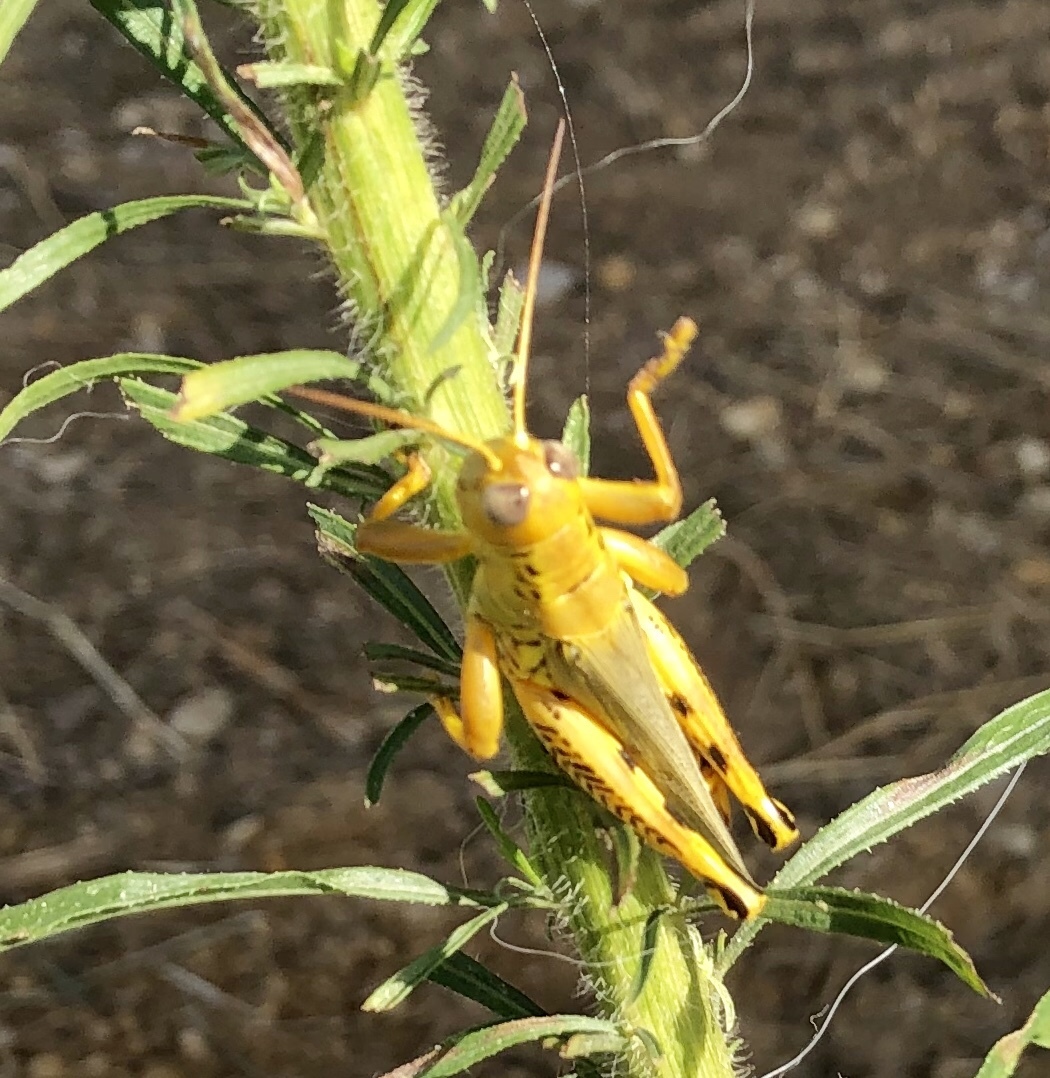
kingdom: Animalia
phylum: Arthropoda
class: Insecta
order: Orthoptera
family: Acrididae
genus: Melanoplus
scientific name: Melanoplus differentialis
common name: Differential grasshopper
